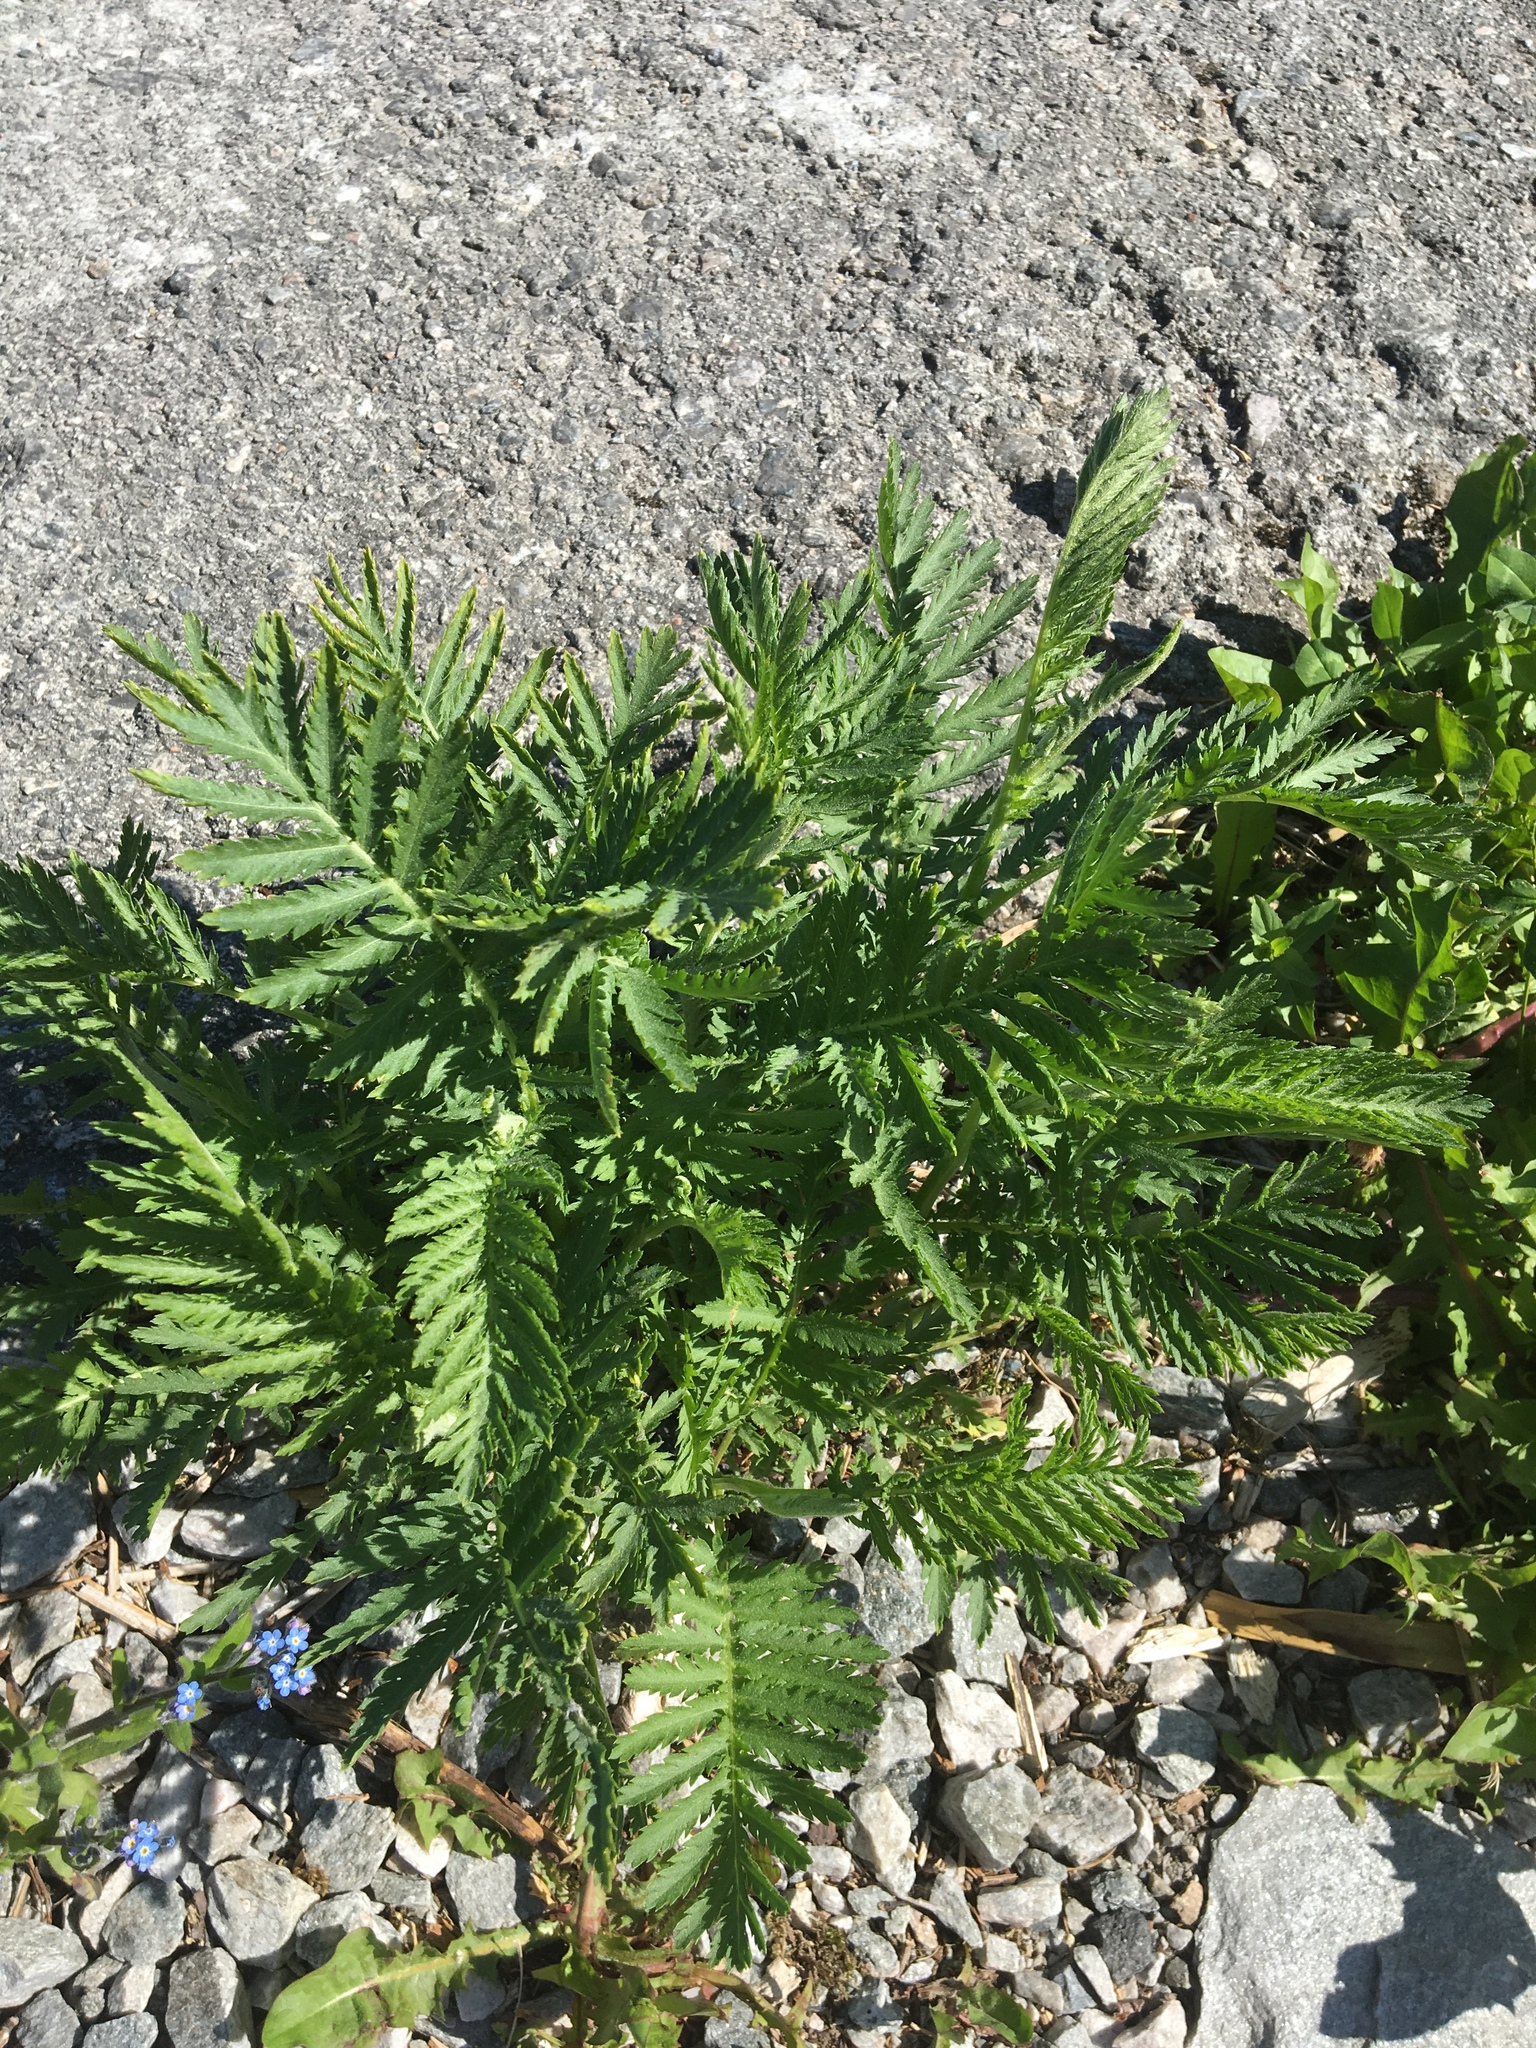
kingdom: Plantae
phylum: Tracheophyta
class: Magnoliopsida
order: Asterales
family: Asteraceae
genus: Tanacetum
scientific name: Tanacetum vulgare
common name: Common tansy
